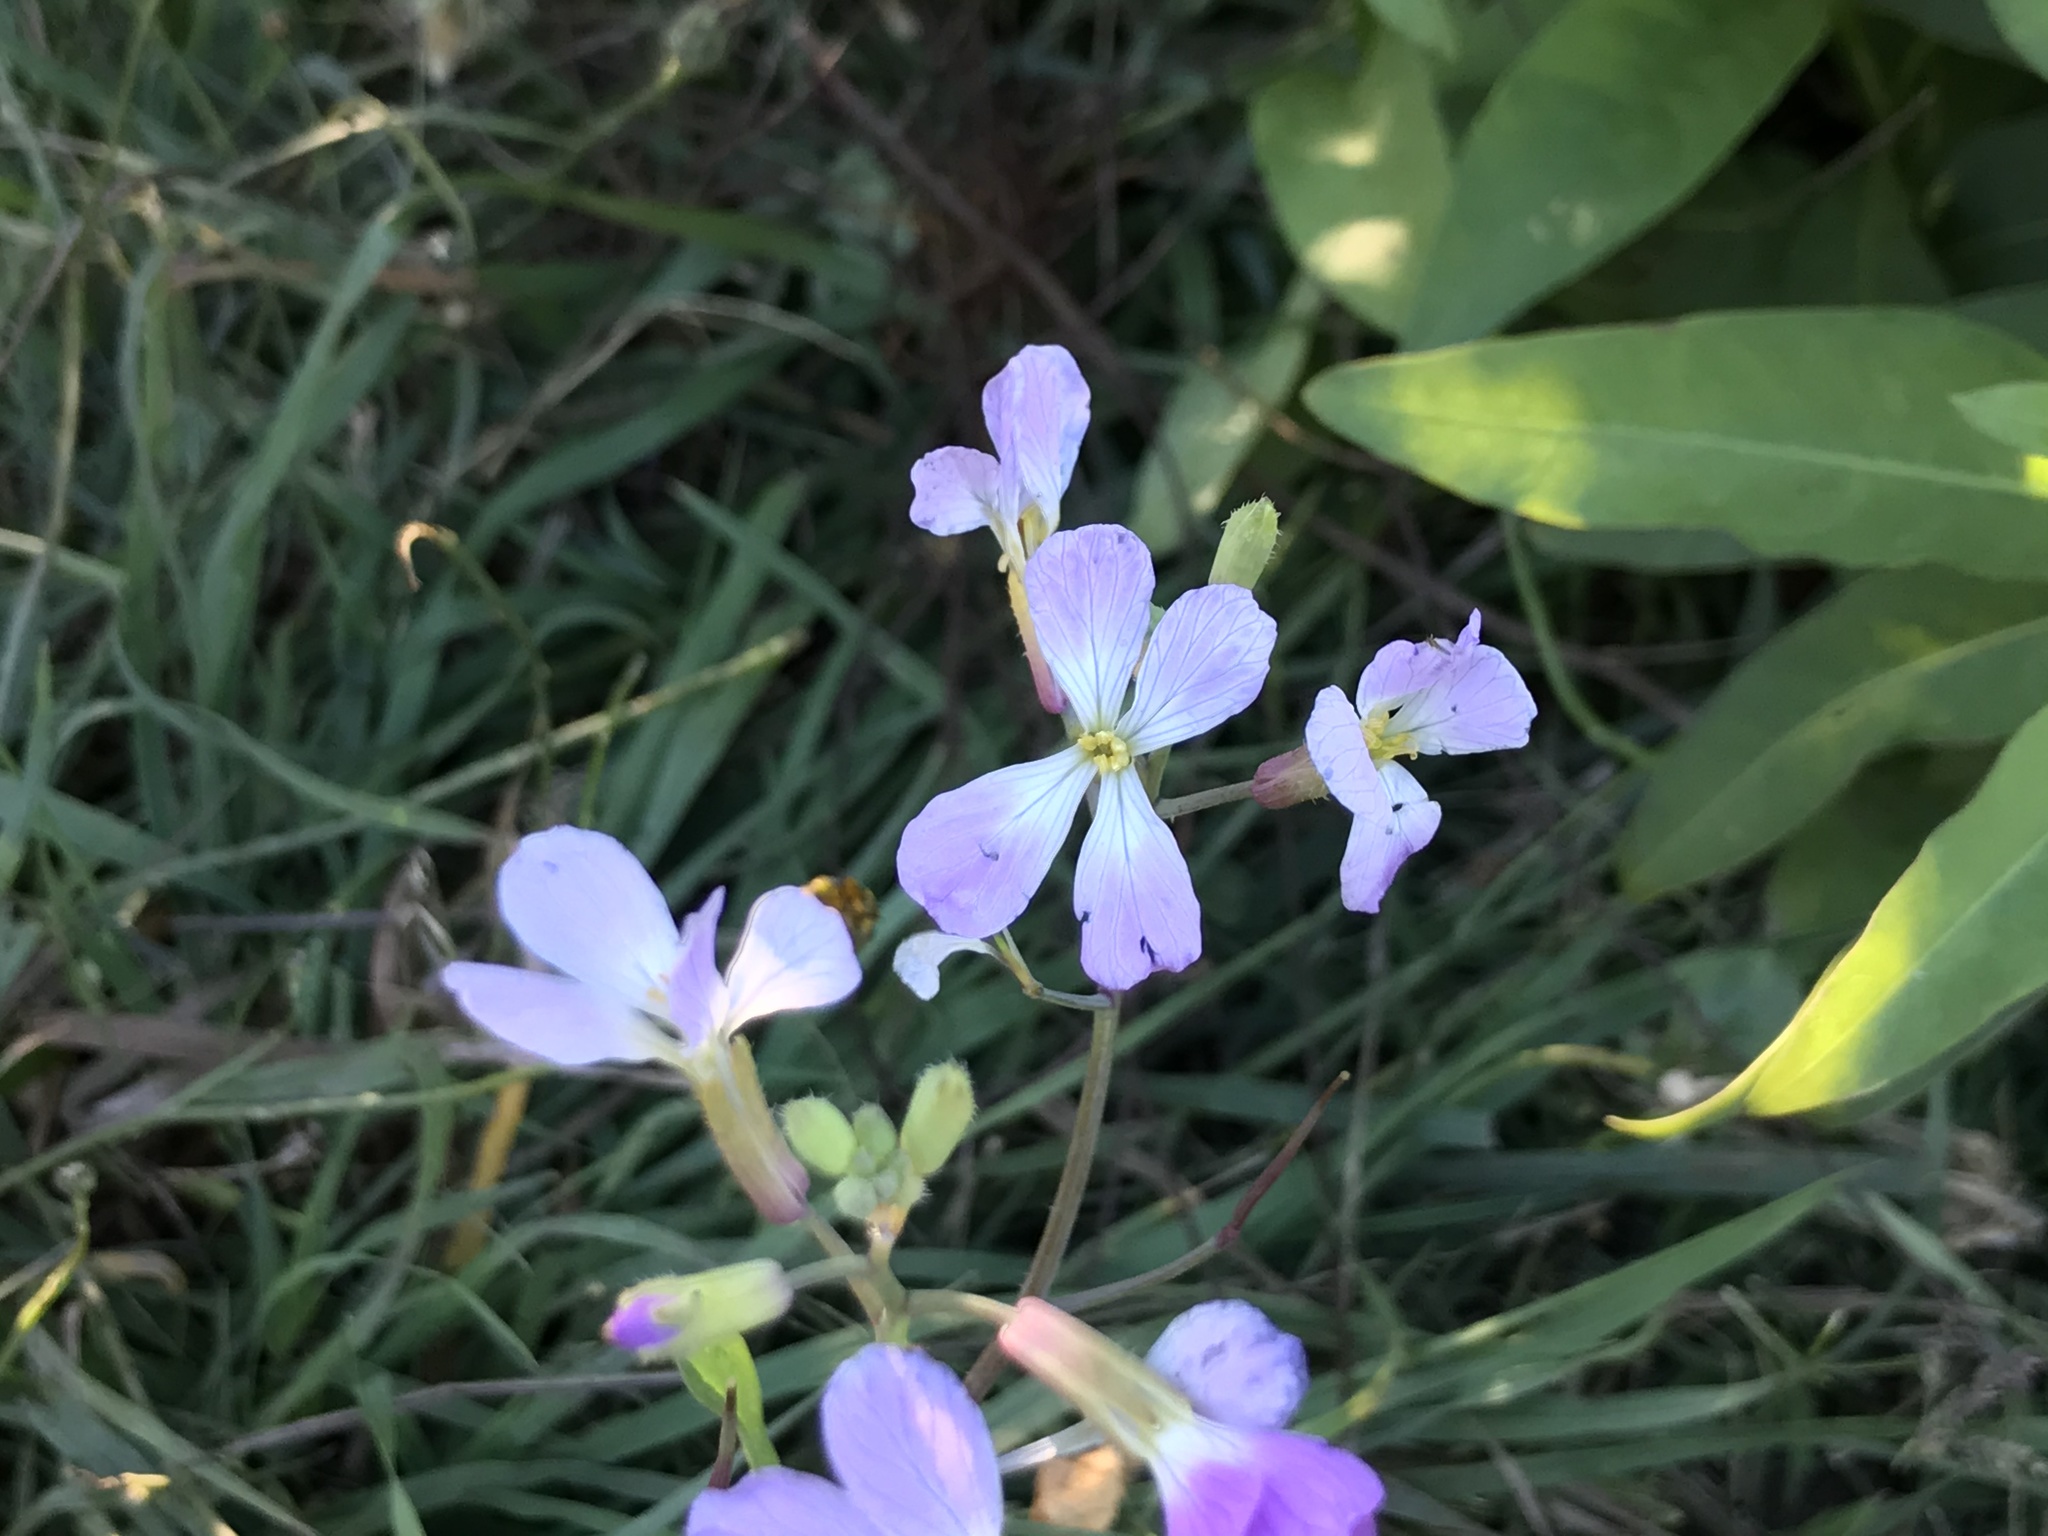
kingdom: Plantae
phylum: Tracheophyta
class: Magnoliopsida
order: Brassicales
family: Brassicaceae
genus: Raphanus
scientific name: Raphanus sativus
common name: Cultivated radish
